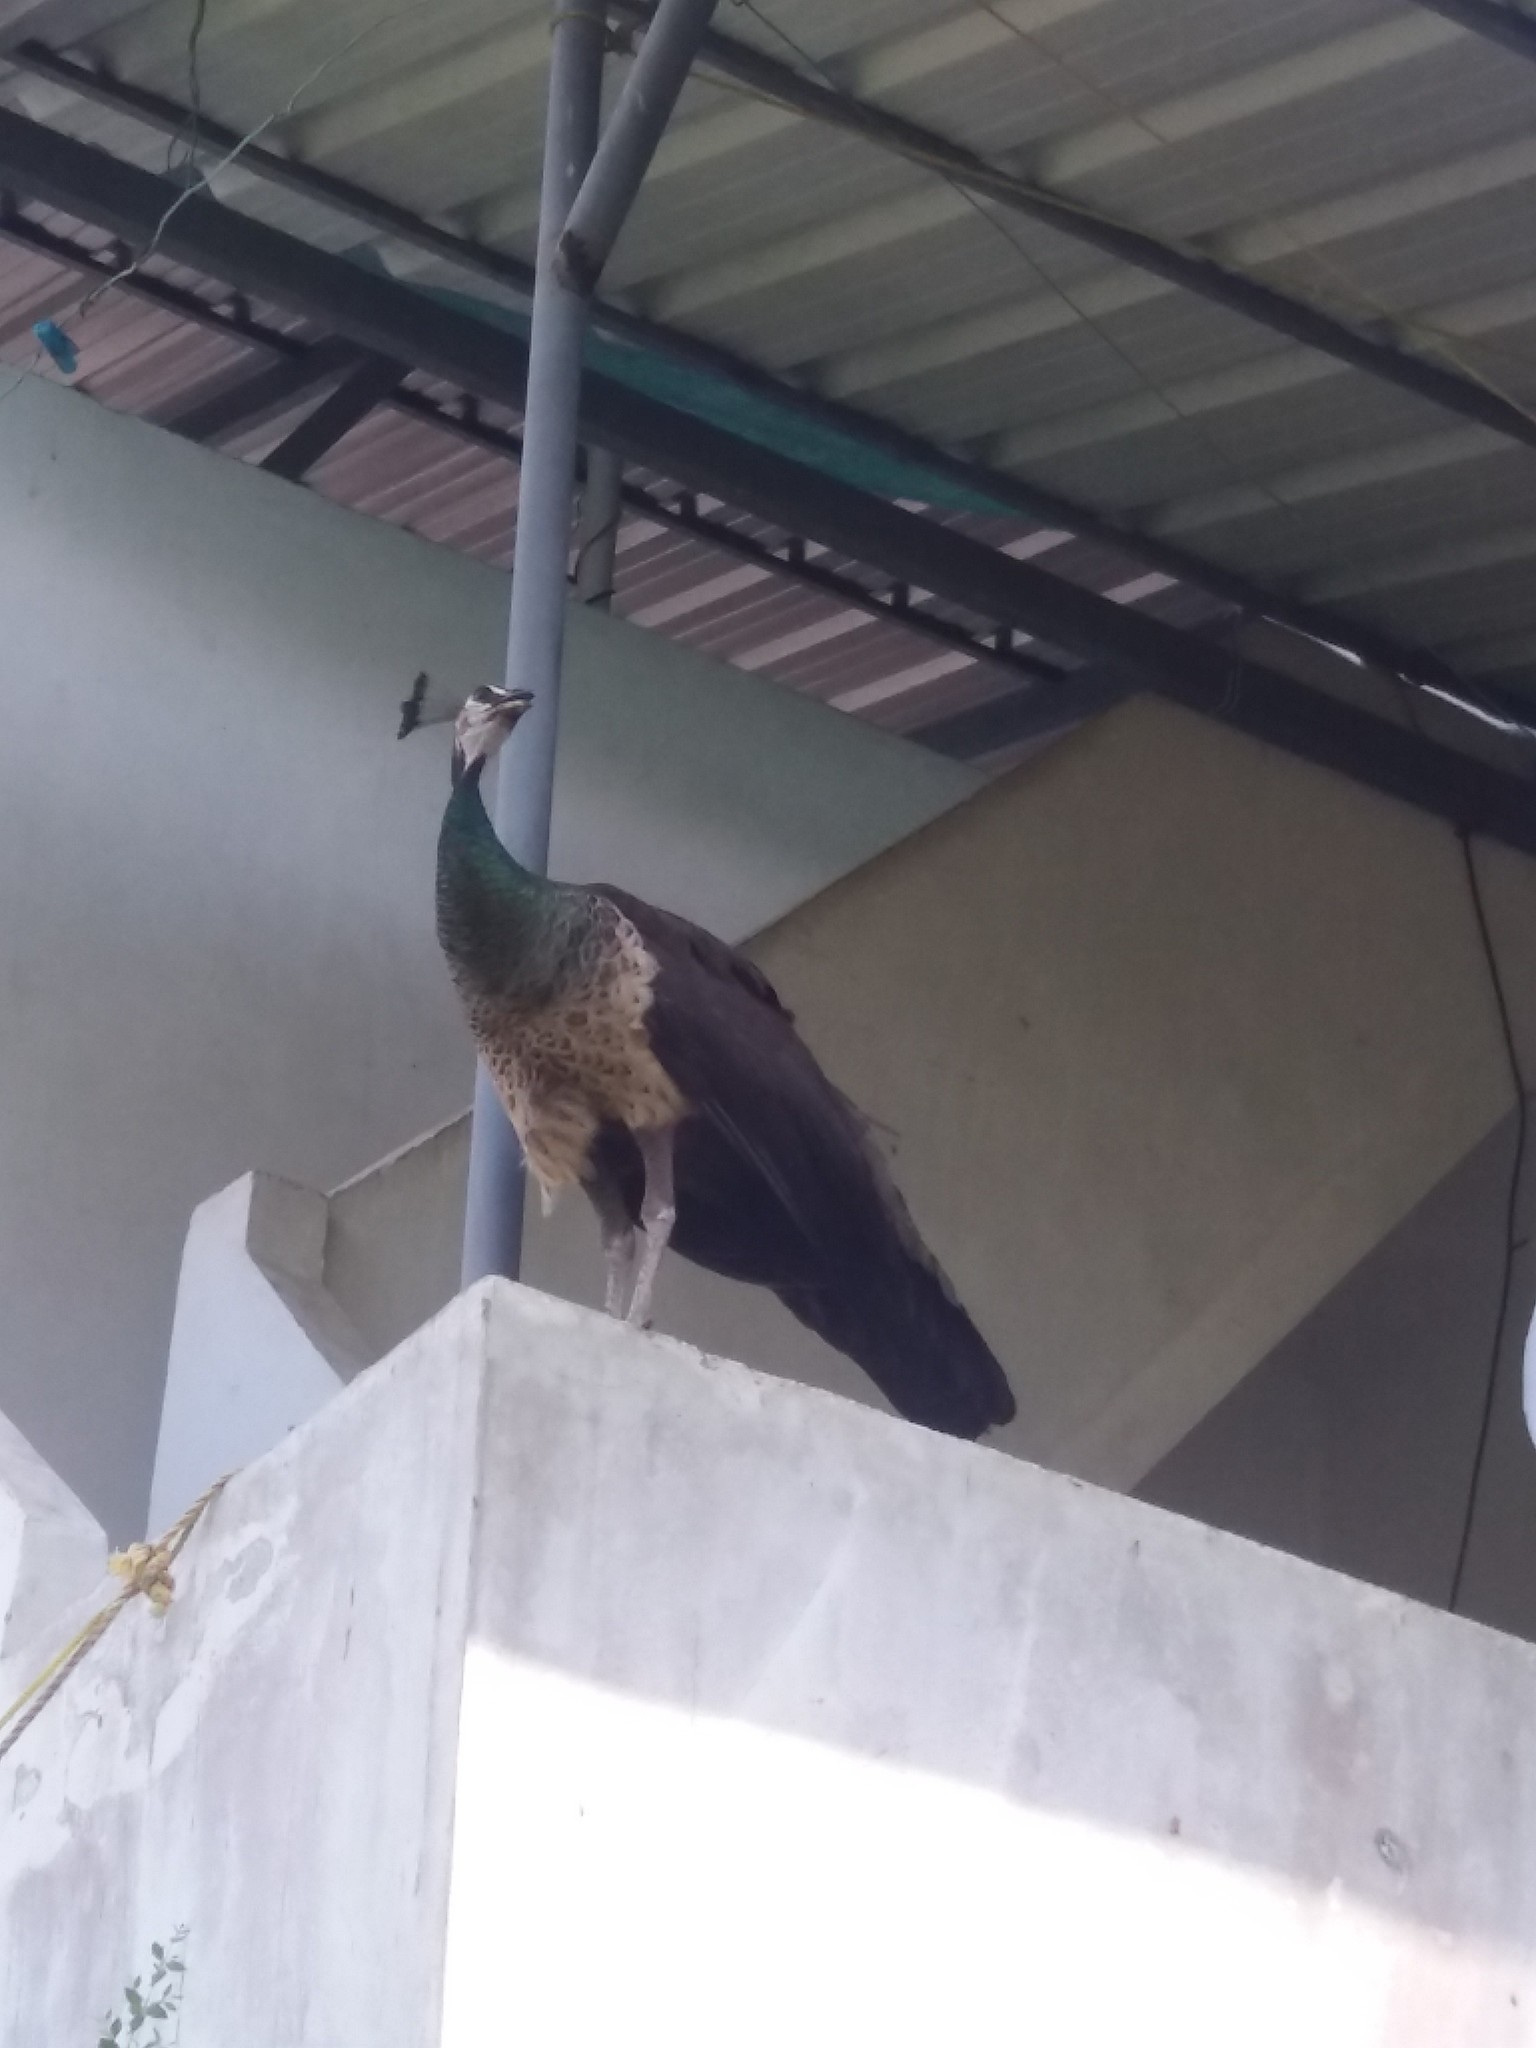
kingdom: Animalia
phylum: Chordata
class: Aves
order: Galliformes
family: Phasianidae
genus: Pavo
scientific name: Pavo cristatus
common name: Indian peafowl
